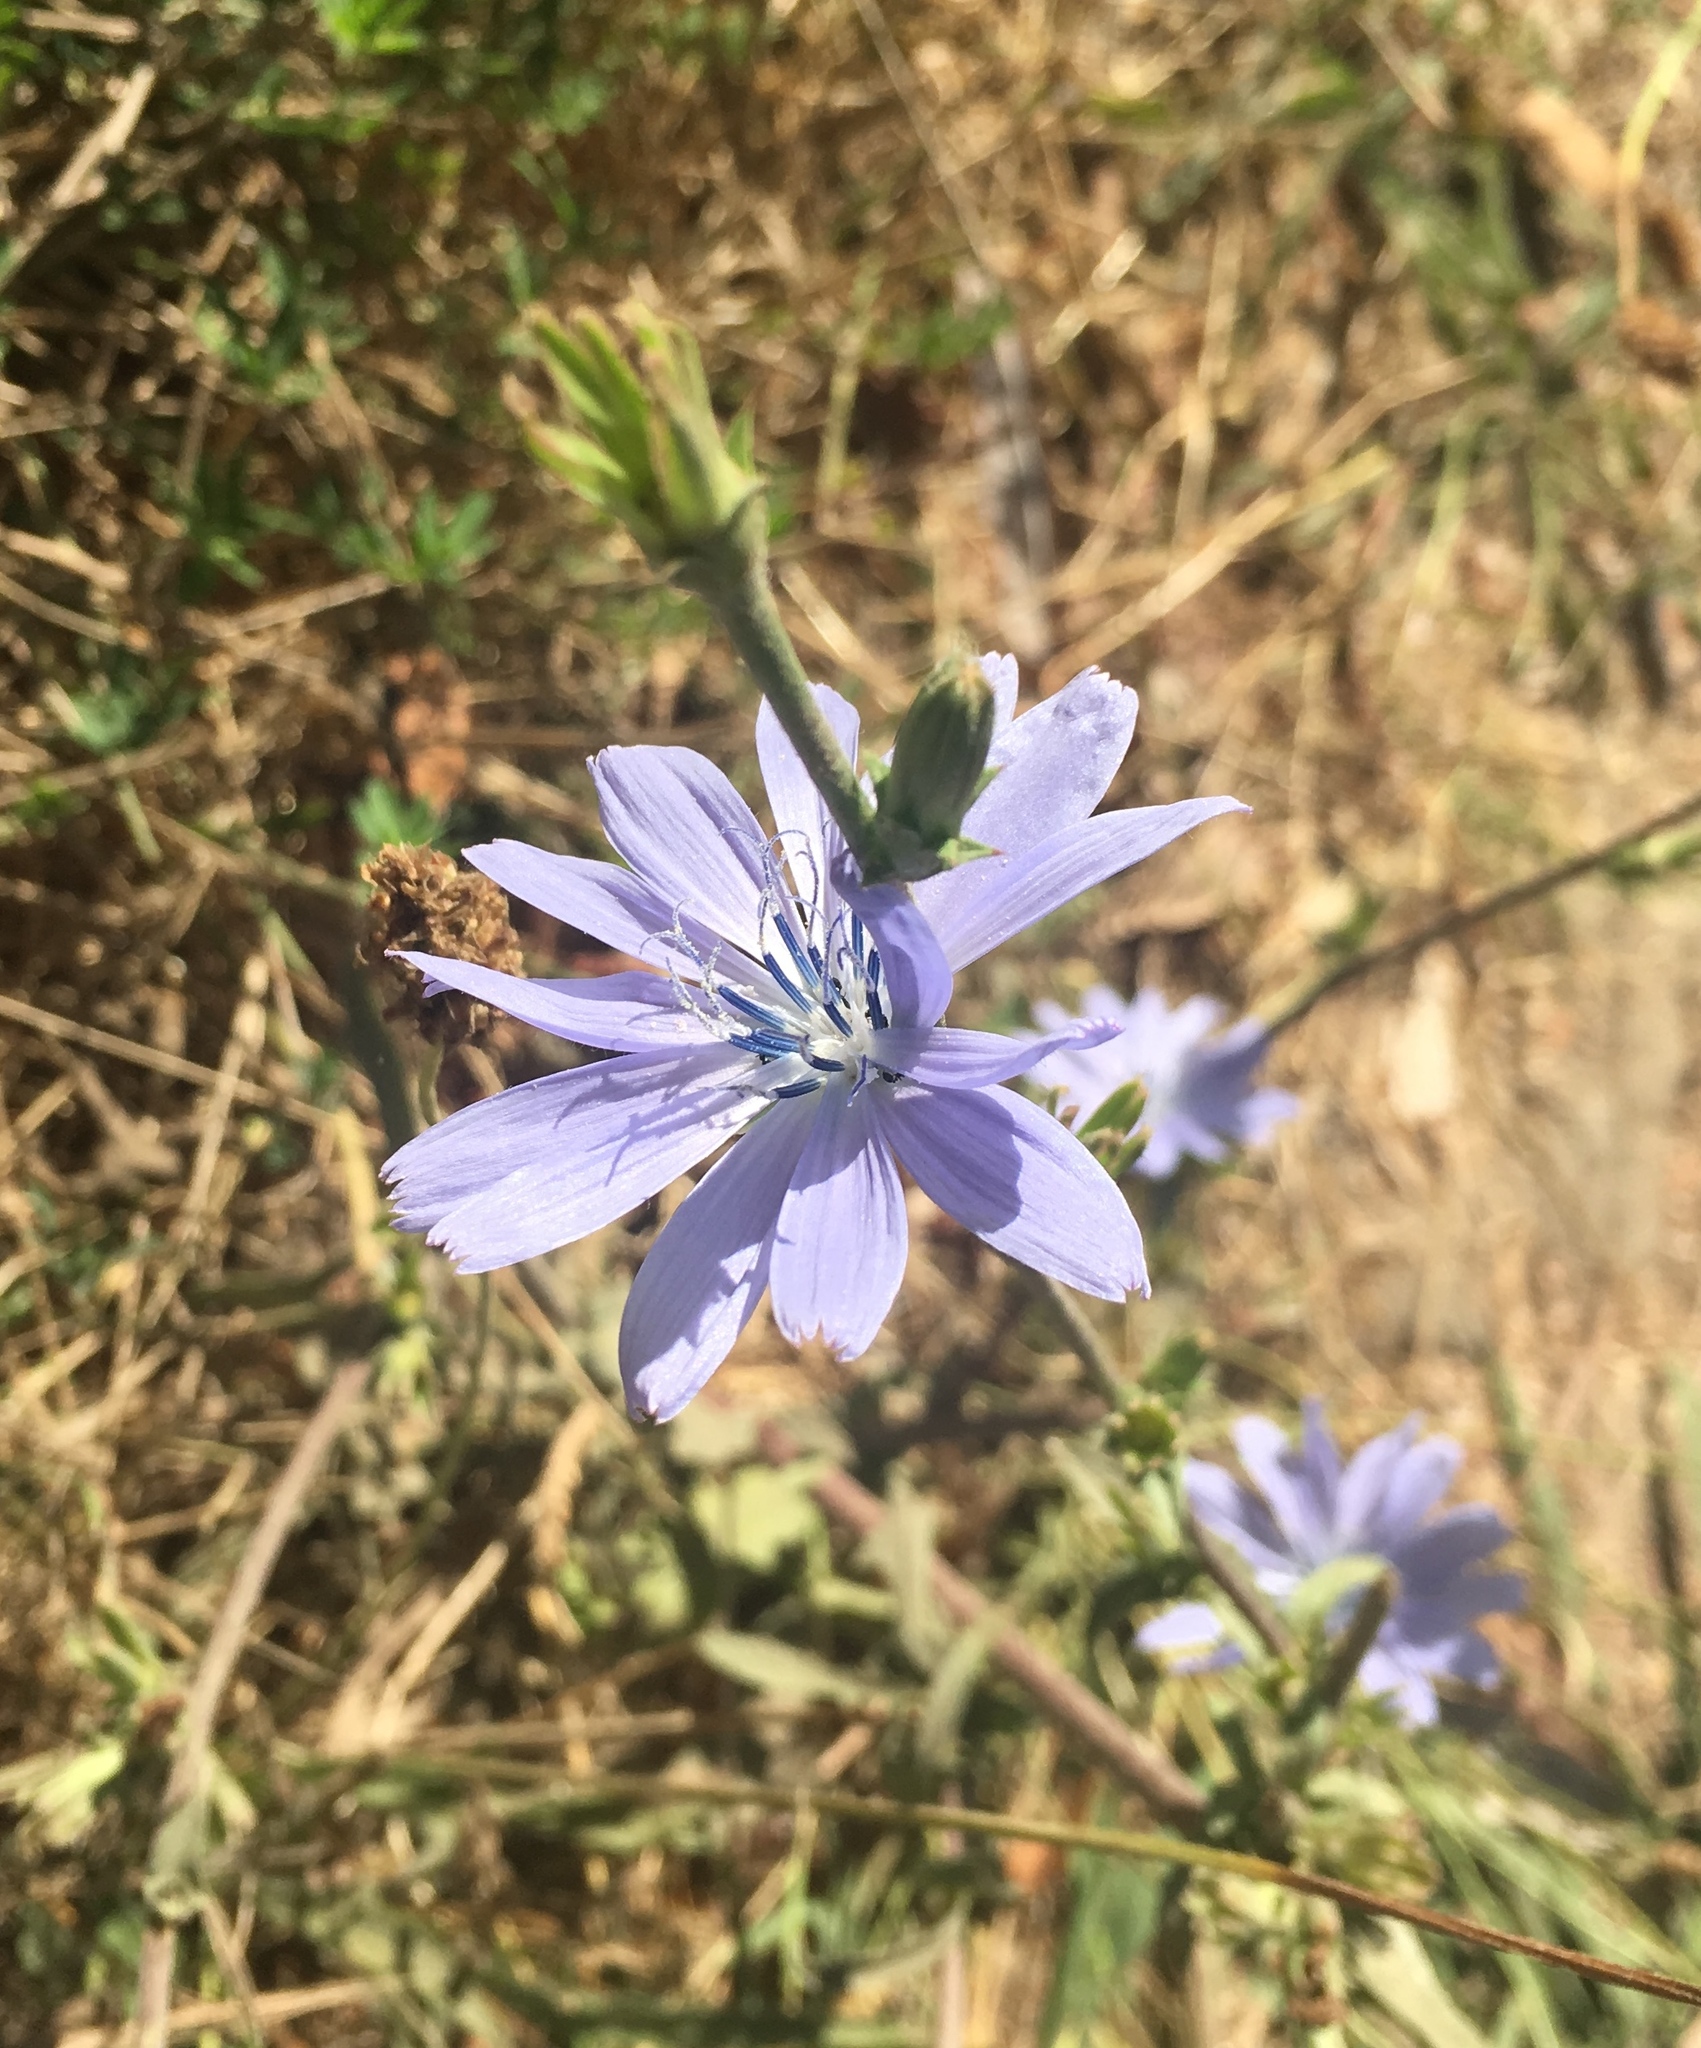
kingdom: Plantae
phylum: Tracheophyta
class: Magnoliopsida
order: Asterales
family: Asteraceae
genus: Cichorium
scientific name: Cichorium intybus
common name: Chicory
